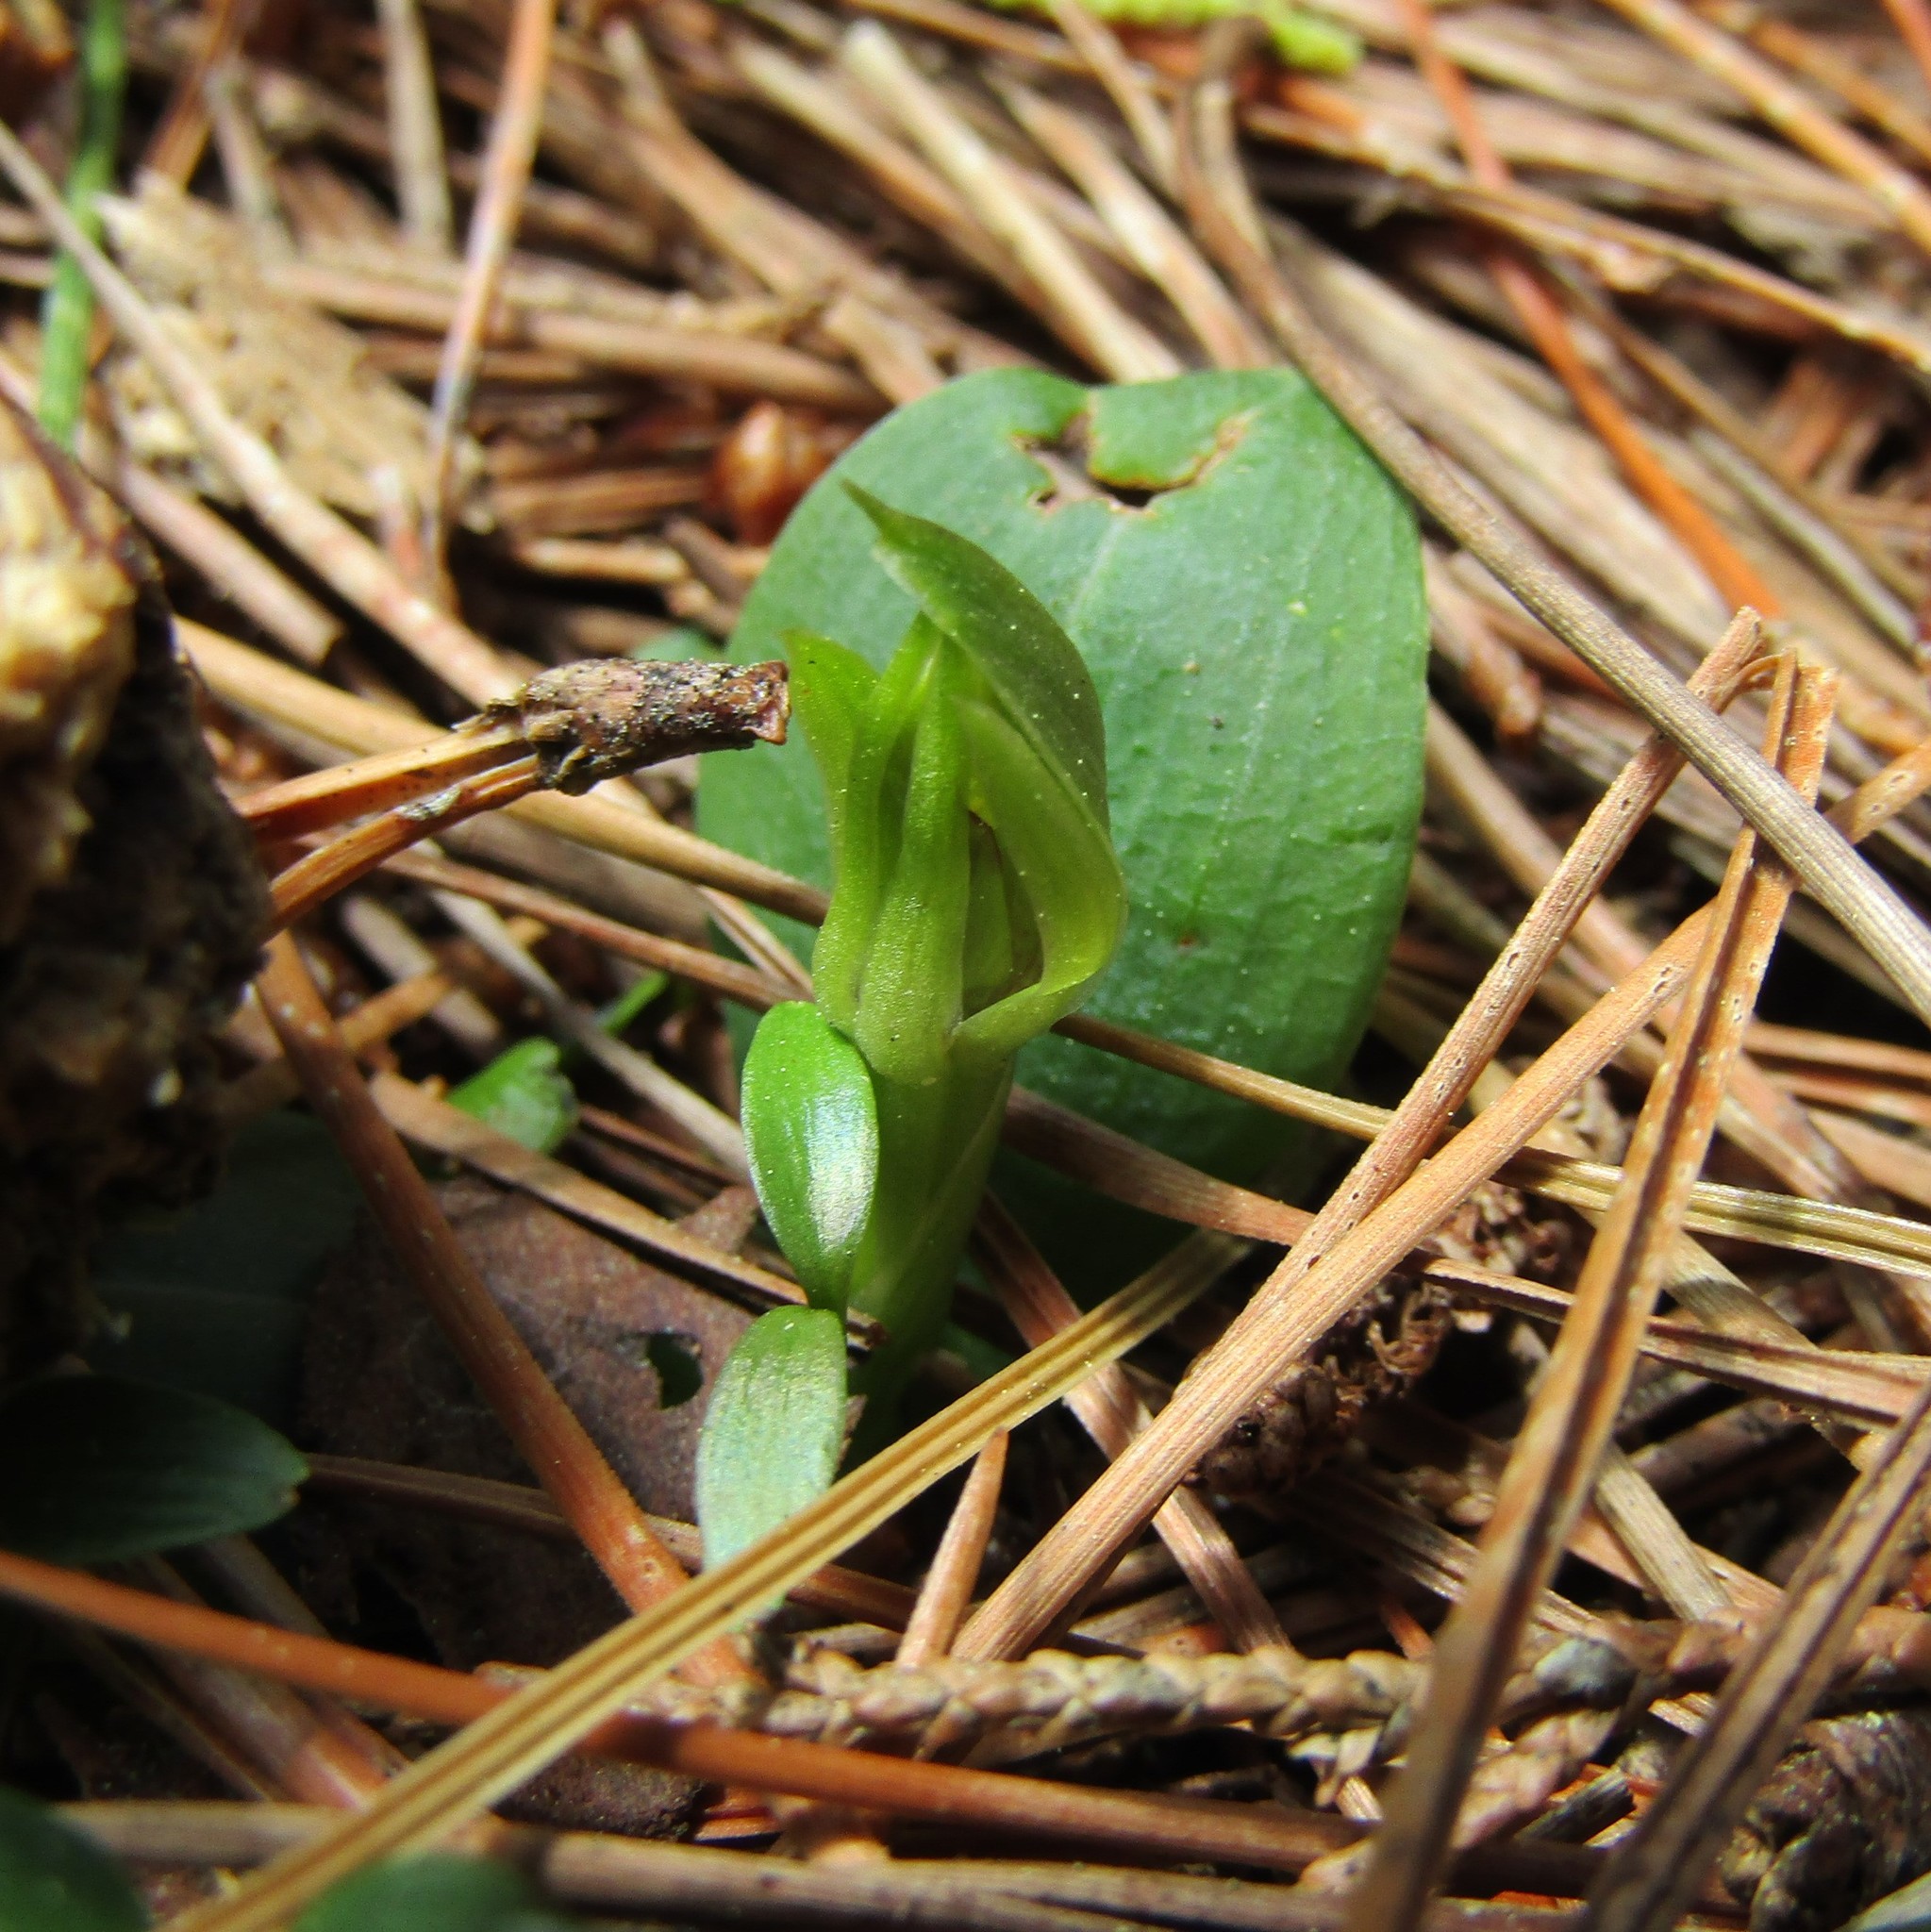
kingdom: Plantae
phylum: Tracheophyta
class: Liliopsida
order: Asparagales
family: Orchidaceae
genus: Chiloglottis
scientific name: Chiloglottis cornuta
